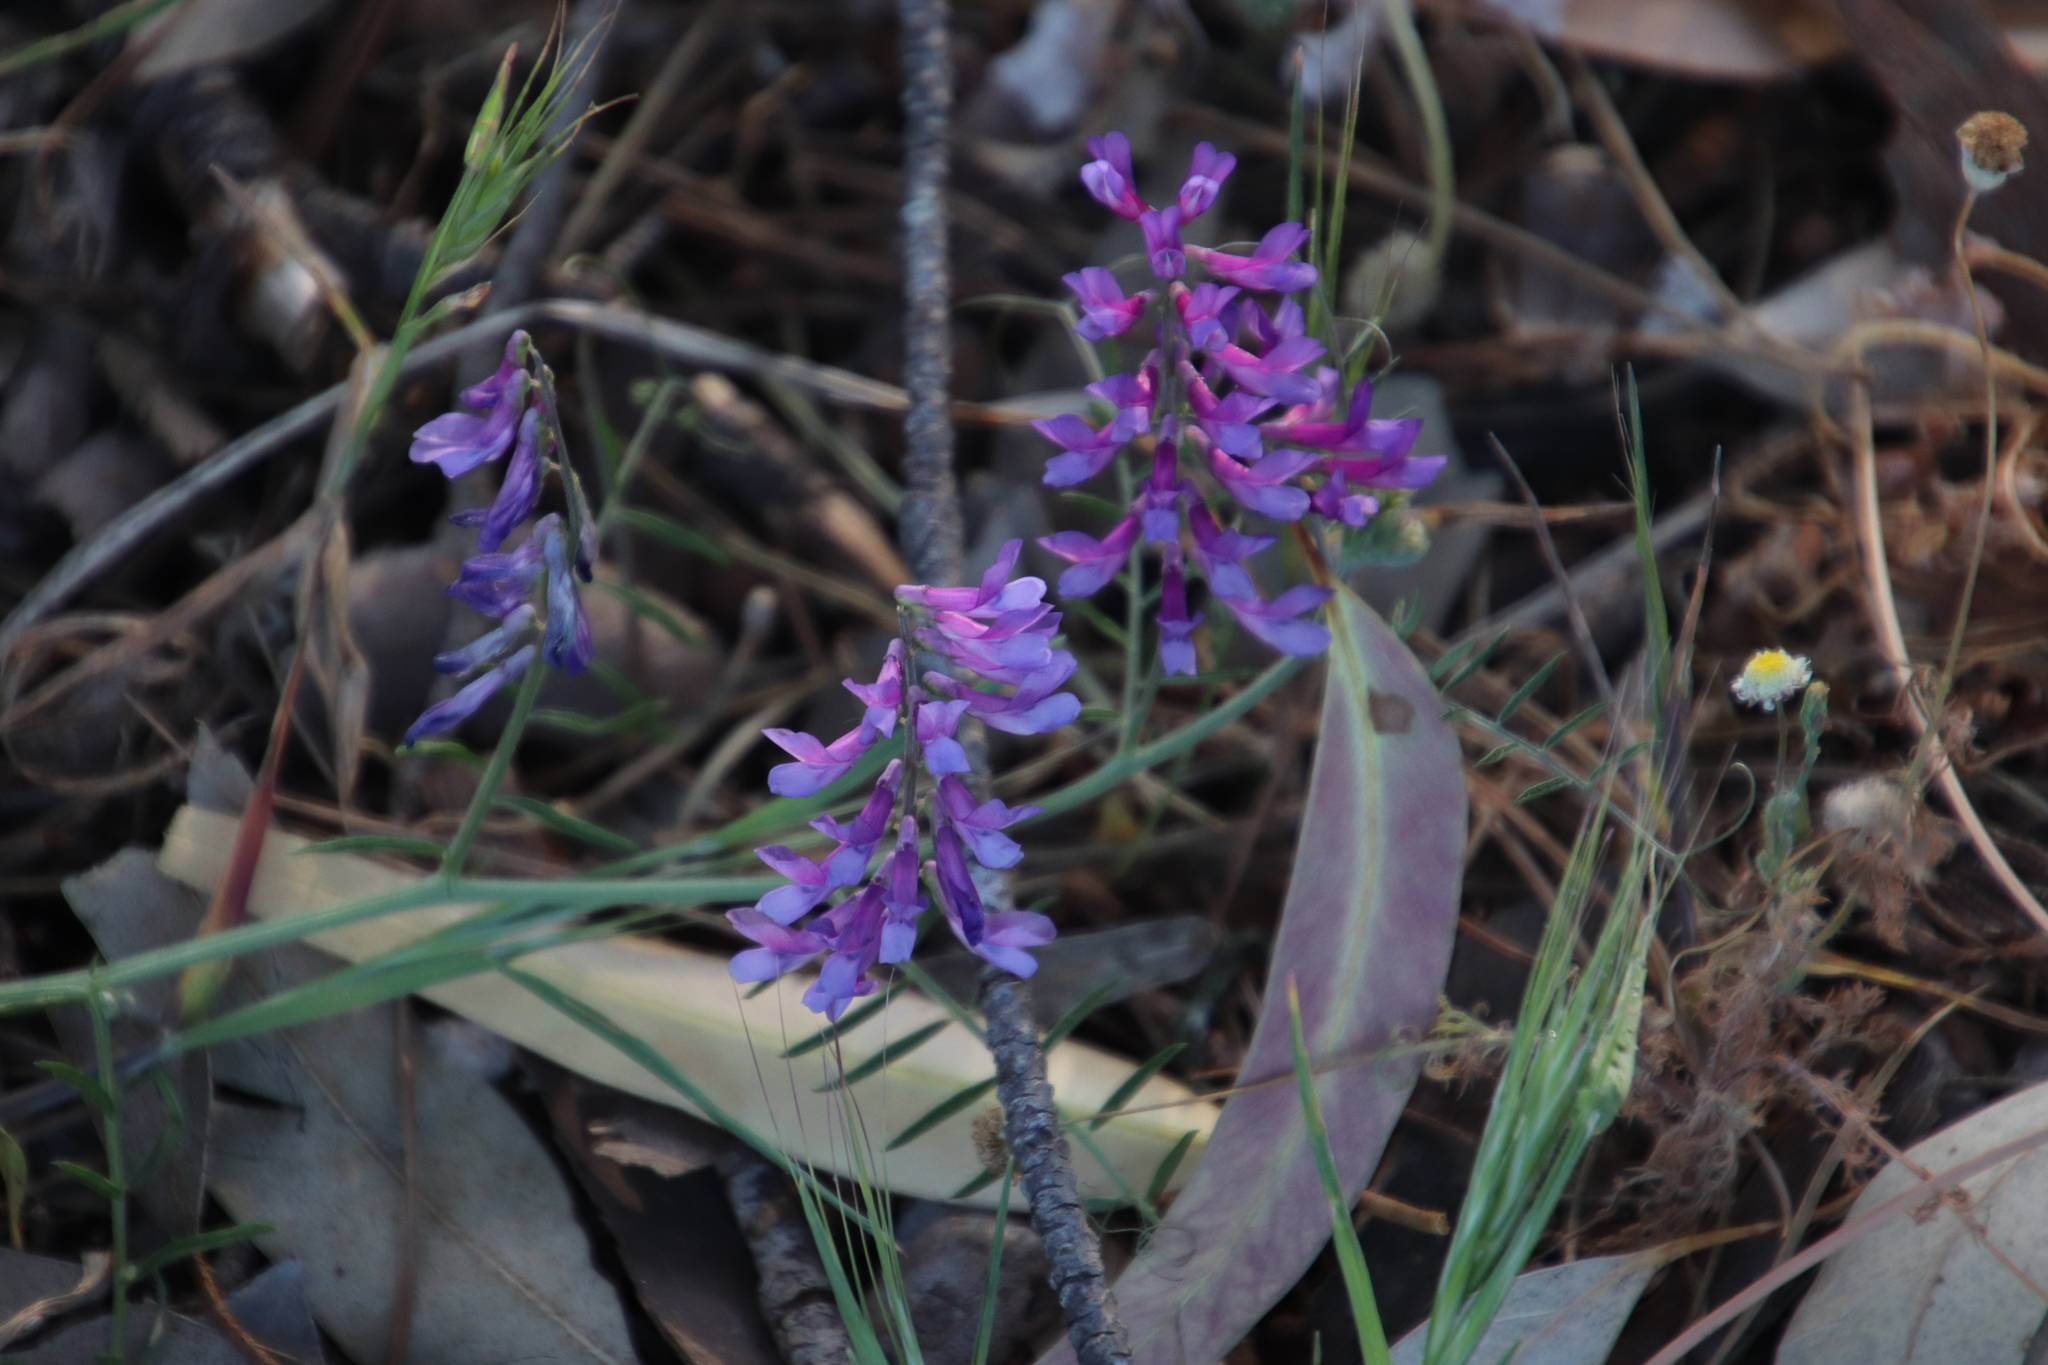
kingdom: Plantae
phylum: Tracheophyta
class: Magnoliopsida
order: Fabales
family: Fabaceae
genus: Vicia
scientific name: Vicia eriocarpa
